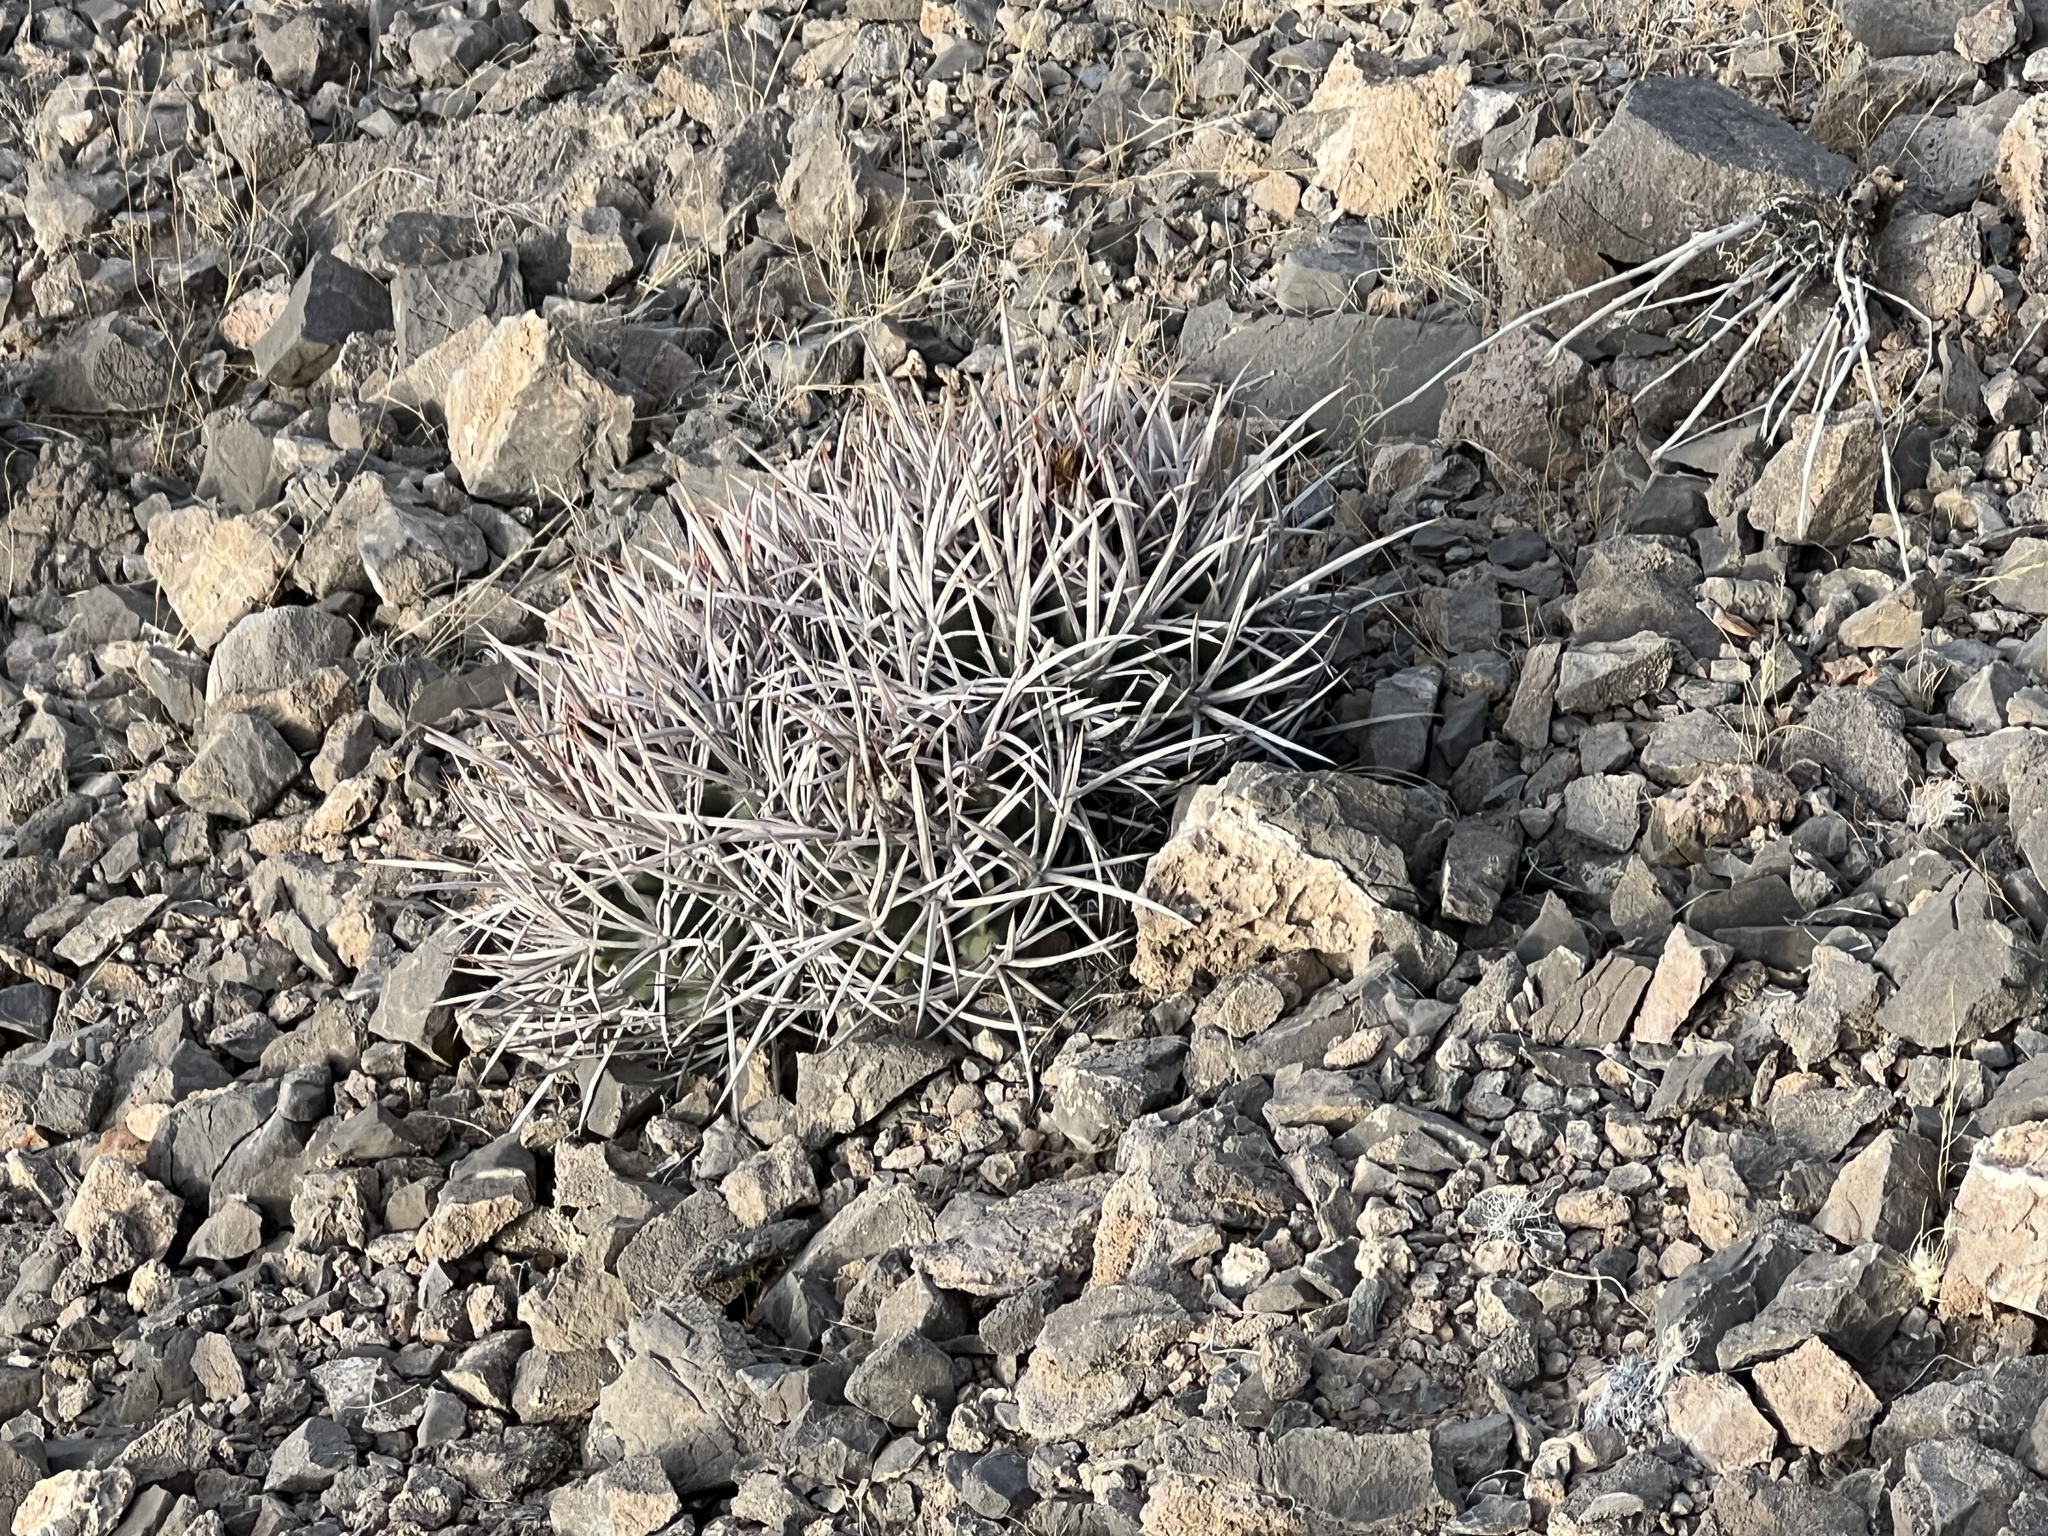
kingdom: Plantae
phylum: Tracheophyta
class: Magnoliopsida
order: Caryophyllales
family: Cactaceae
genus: Echinocactus
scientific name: Echinocactus polycephalus
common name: Cottontop cactus
